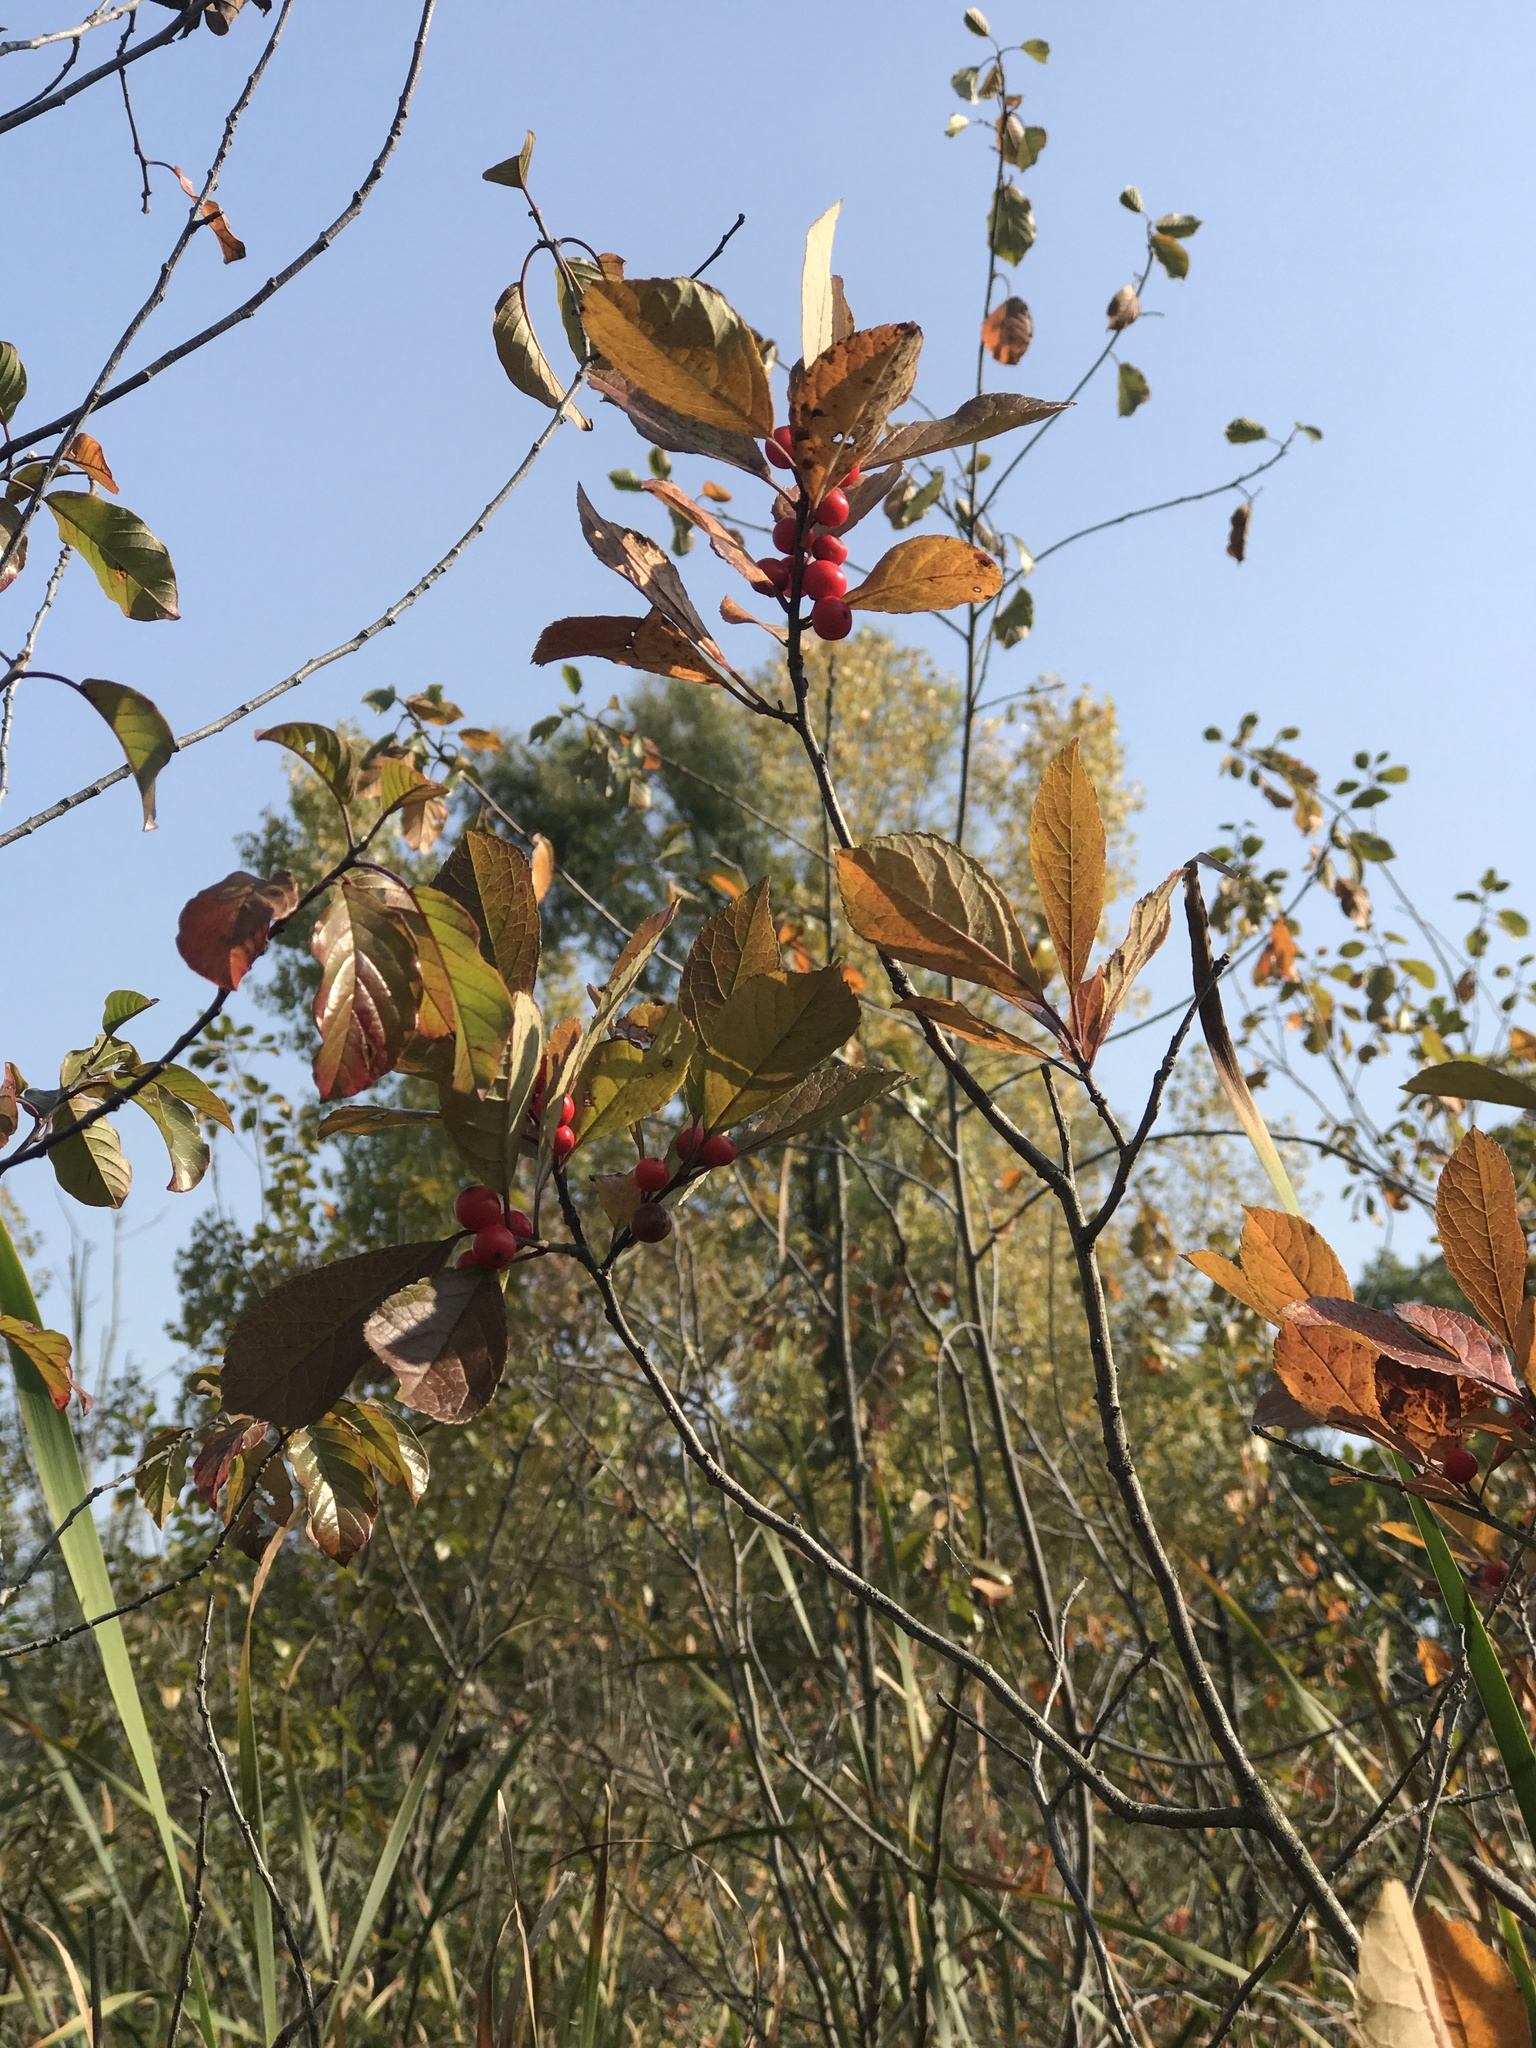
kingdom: Plantae
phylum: Tracheophyta
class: Magnoliopsida
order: Aquifoliales
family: Aquifoliaceae
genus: Ilex
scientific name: Ilex verticillata
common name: Virginia winterberry
